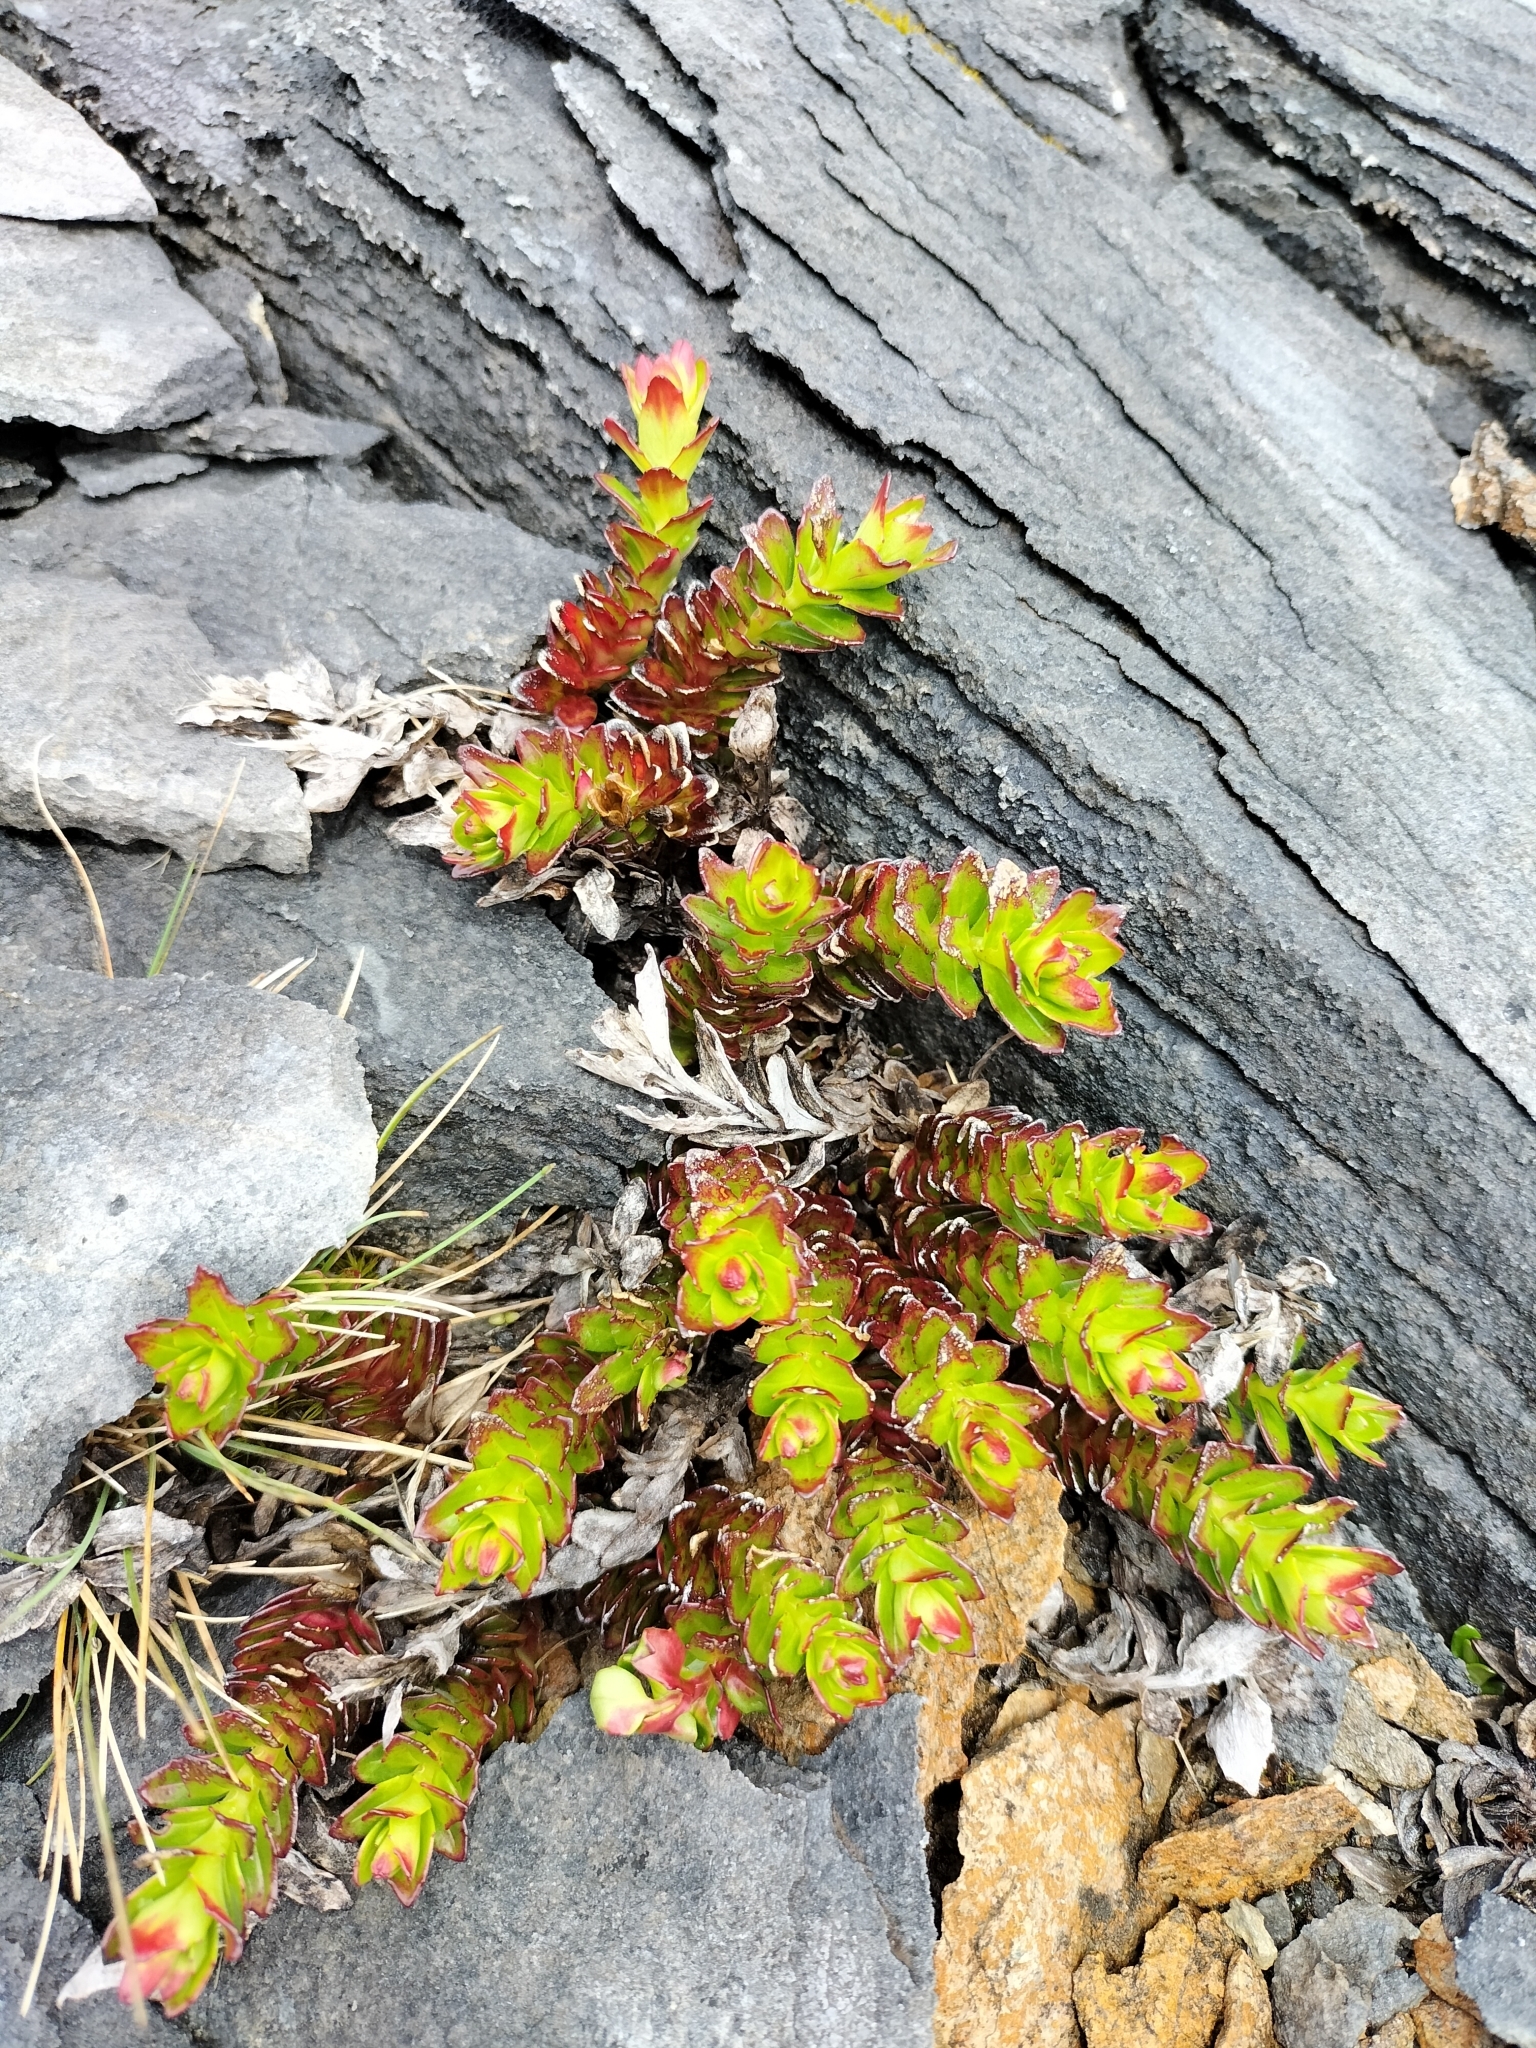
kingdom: Plantae
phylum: Tracheophyta
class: Magnoliopsida
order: Myrtales
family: Onagraceae
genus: Epilobium
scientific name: Epilobium glabellum
